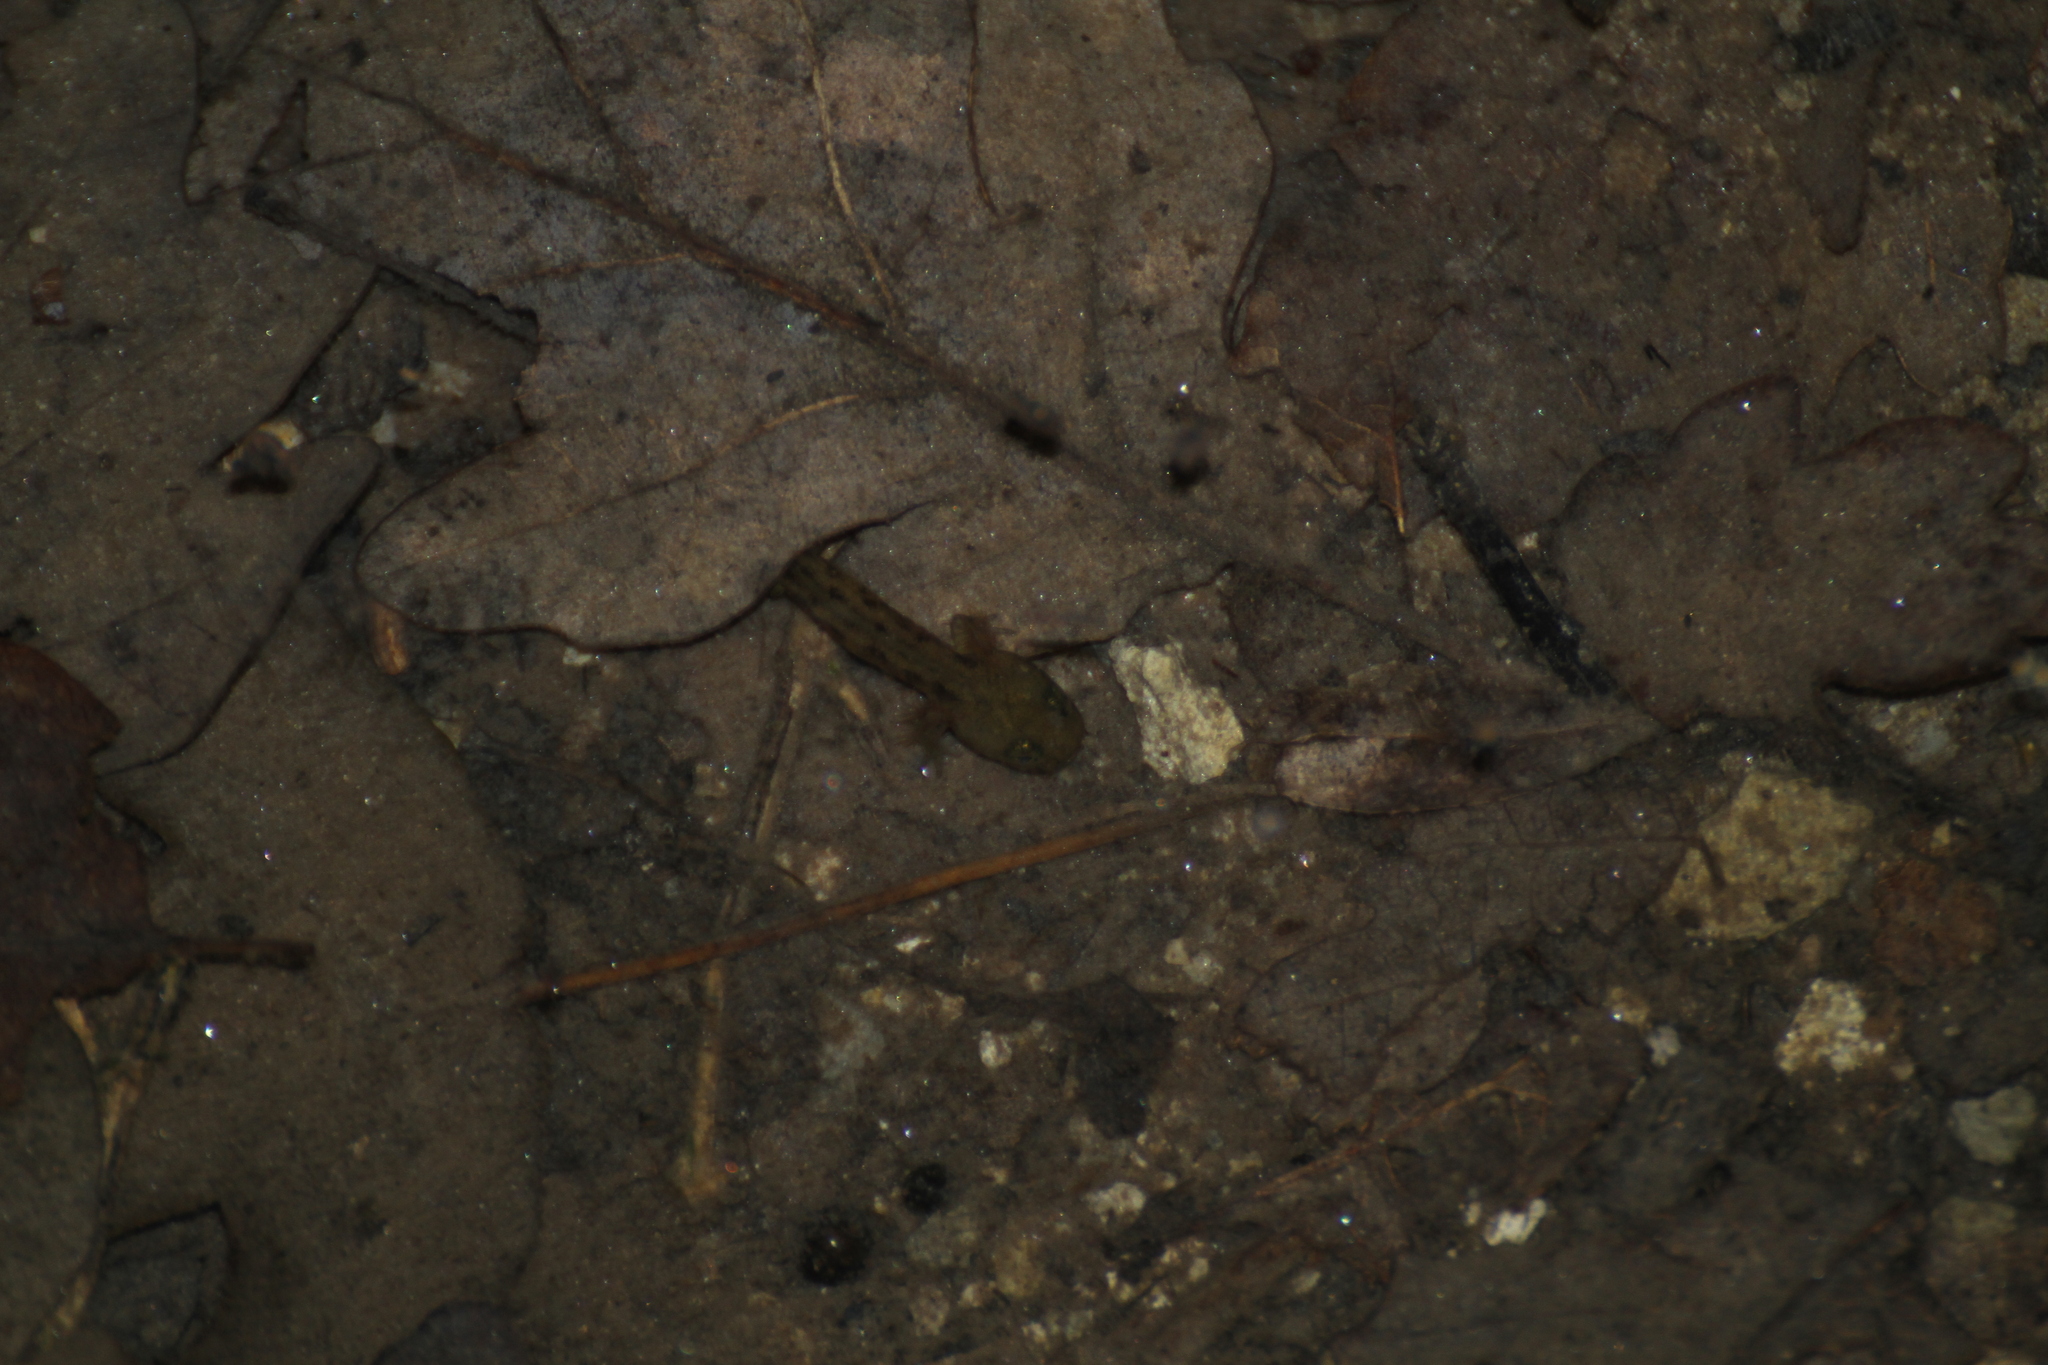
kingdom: Animalia
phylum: Chordata
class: Amphibia
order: Caudata
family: Salamandridae
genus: Salamandra
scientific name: Salamandra salamandra
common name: Fire salamander
